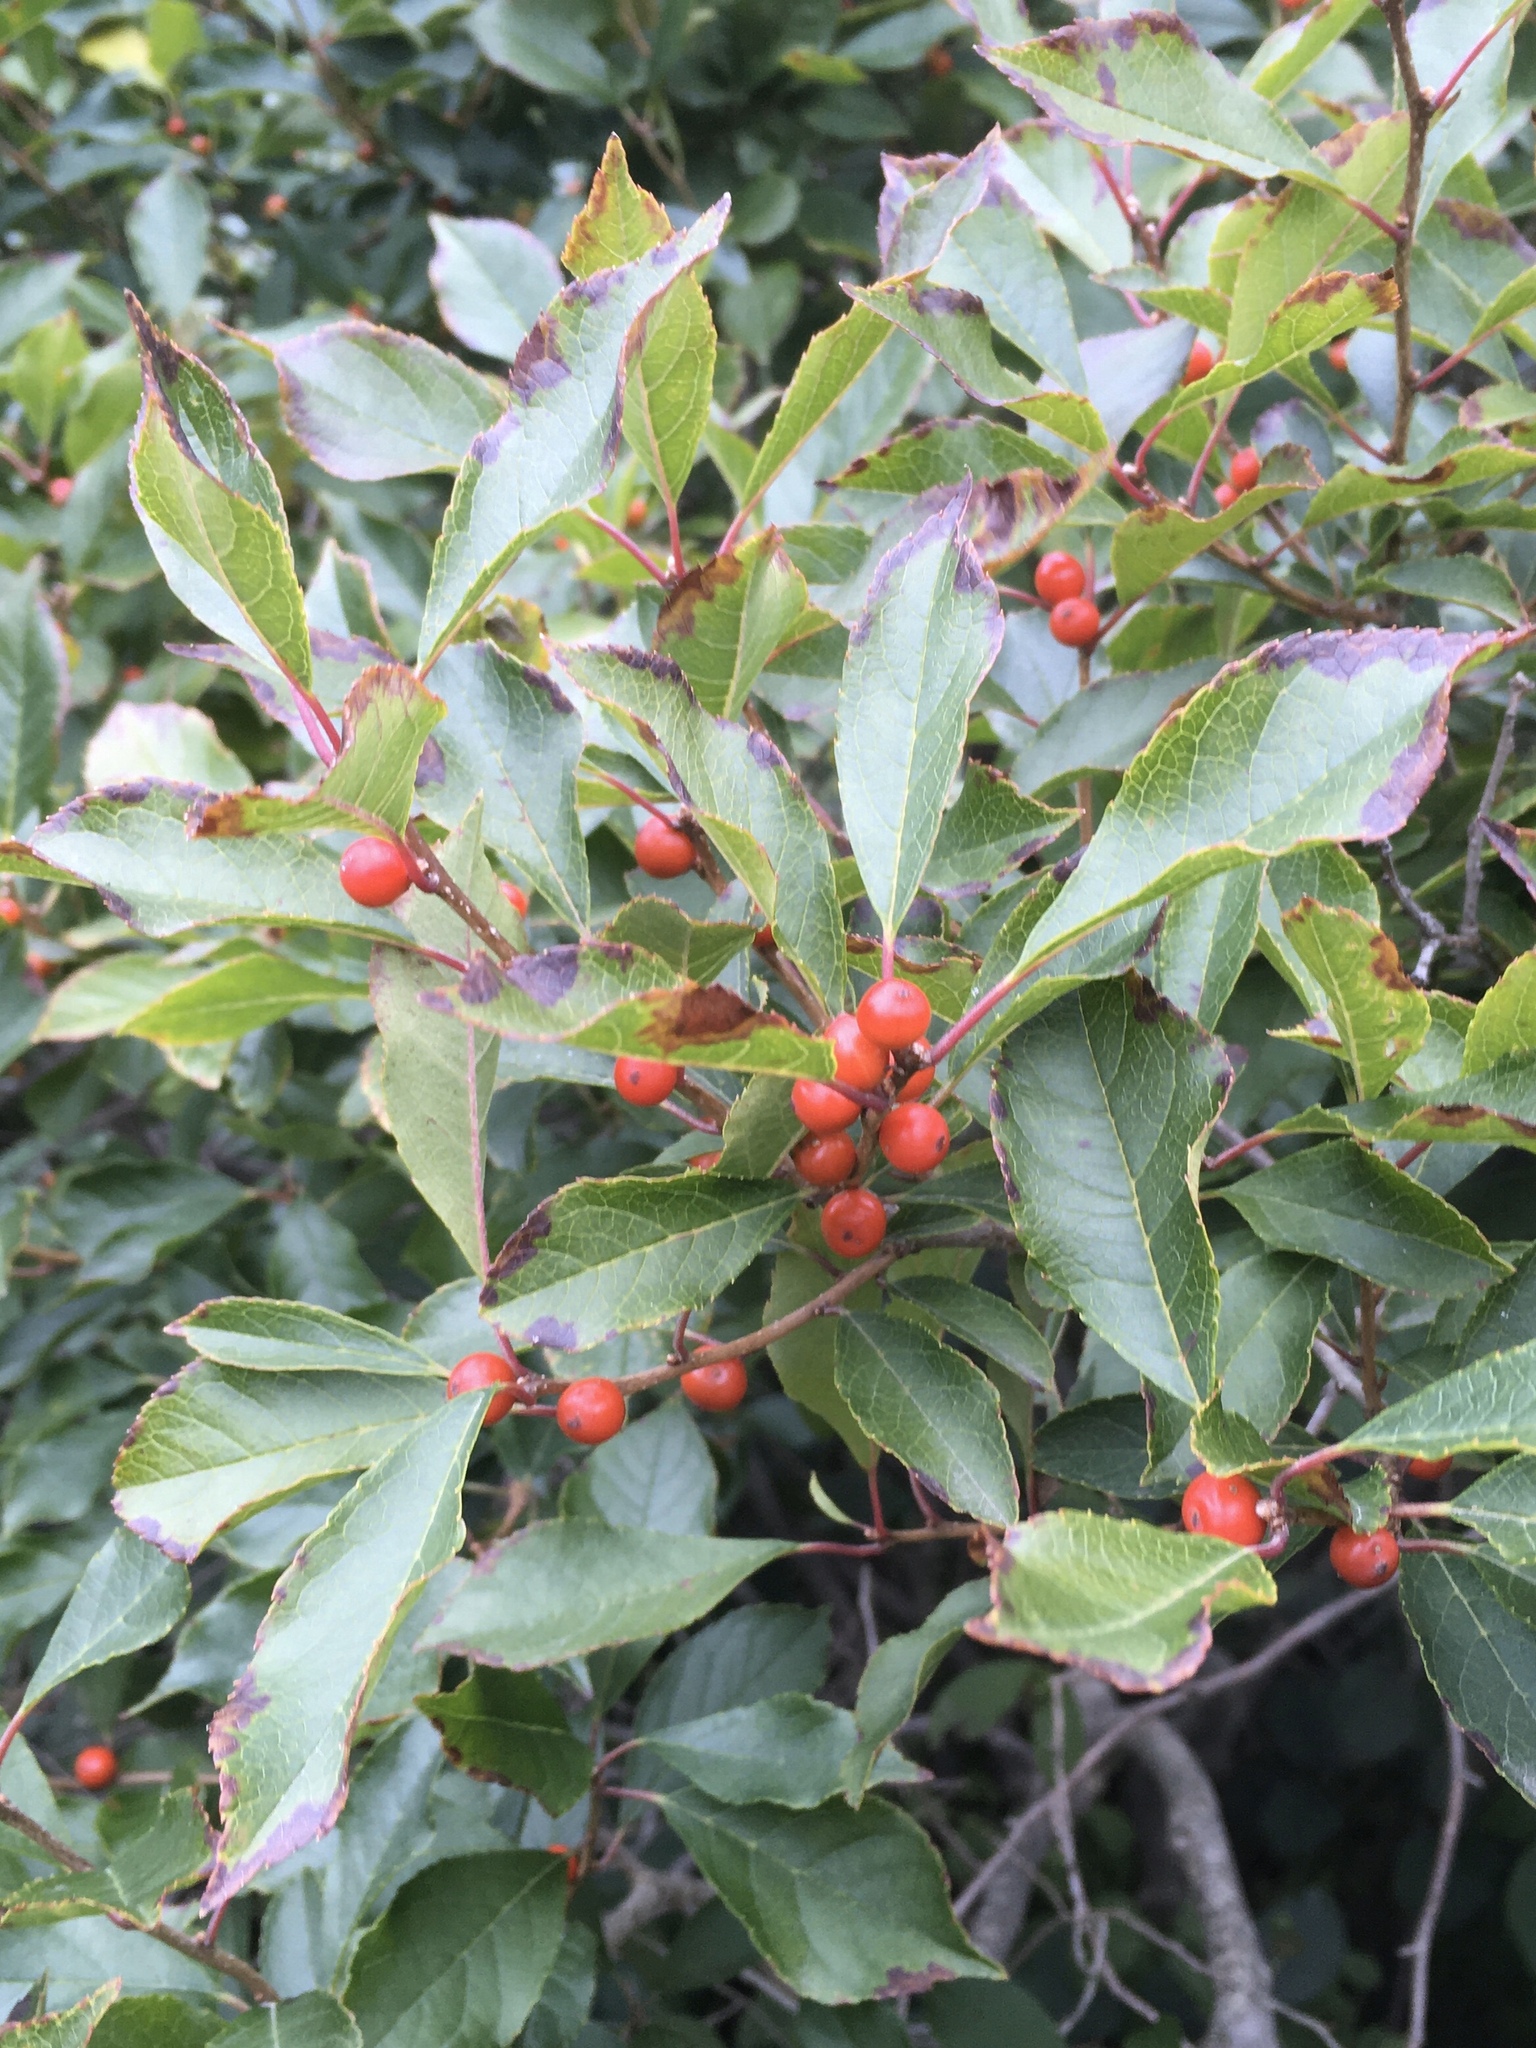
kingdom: Plantae
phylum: Tracheophyta
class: Magnoliopsida
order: Aquifoliales
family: Aquifoliaceae
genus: Ilex
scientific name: Ilex verticillata
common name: Virginia winterberry
